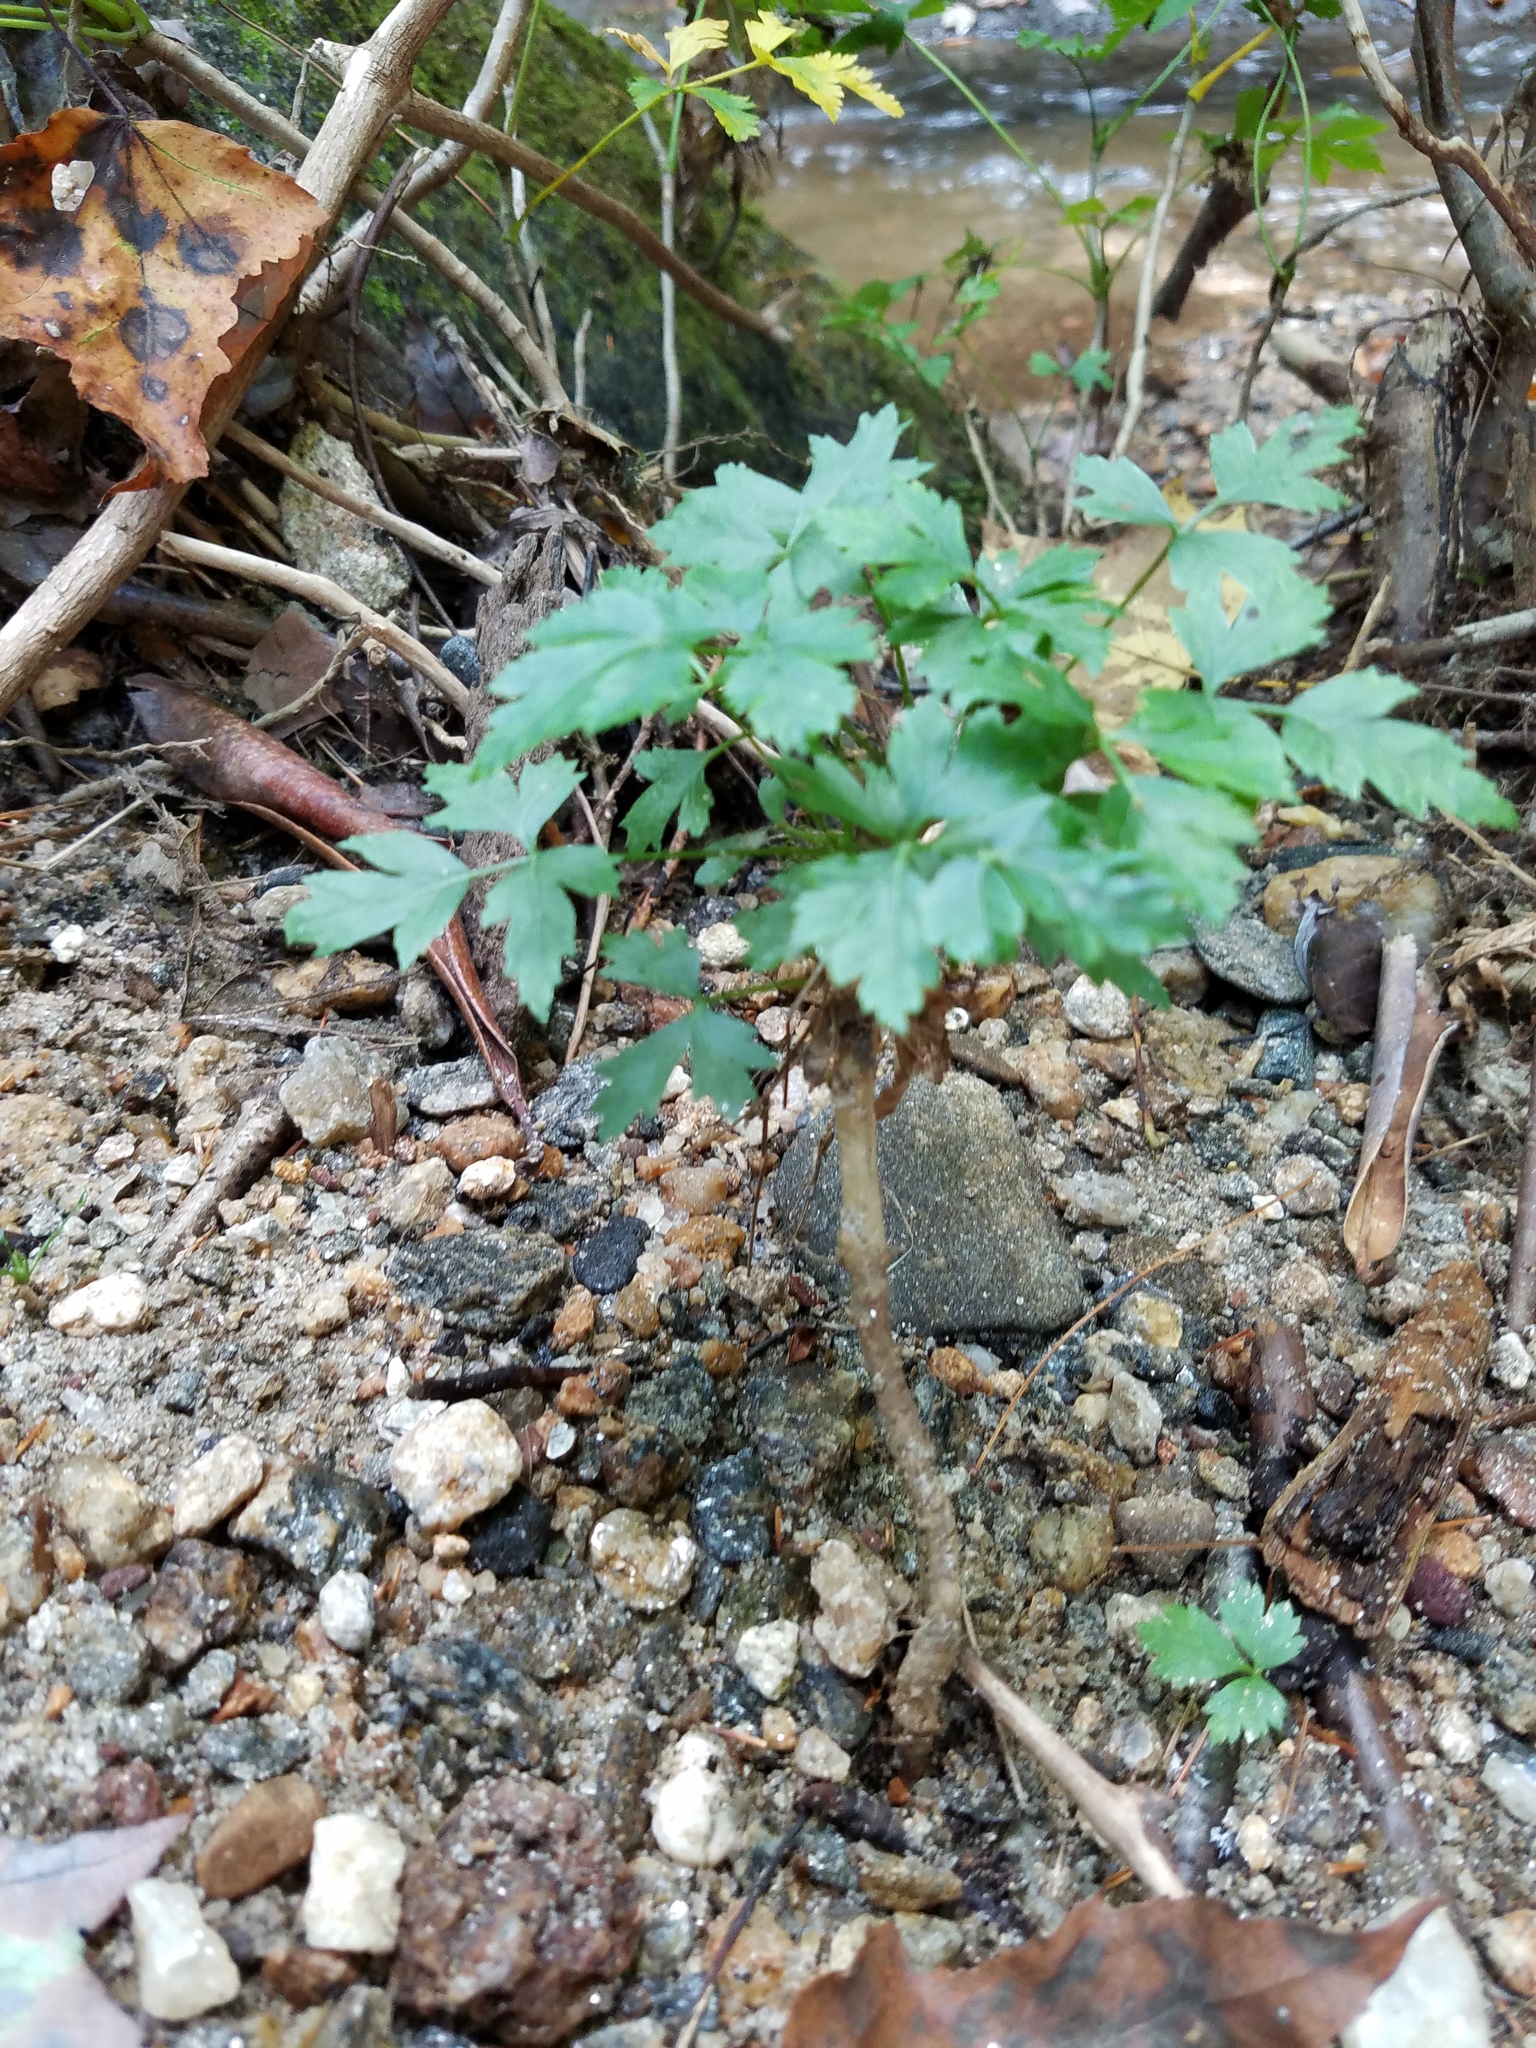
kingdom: Plantae
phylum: Tracheophyta
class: Magnoliopsida
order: Ranunculales
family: Ranunculaceae
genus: Xanthorhiza
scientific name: Xanthorhiza simplicissima
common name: Yellowroot
